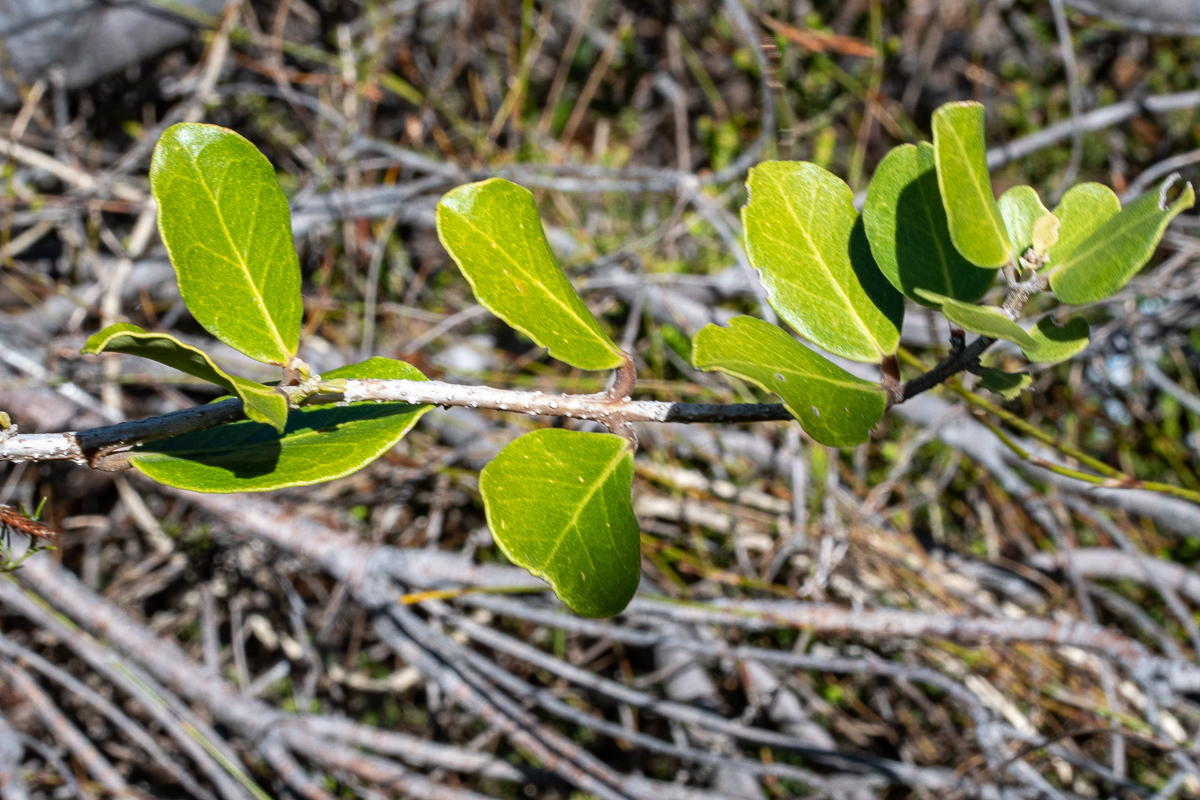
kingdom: Plantae
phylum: Tracheophyta
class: Magnoliopsida
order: Lamiales
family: Oleaceae
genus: Olea
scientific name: Olea capensis
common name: Black ironwood
